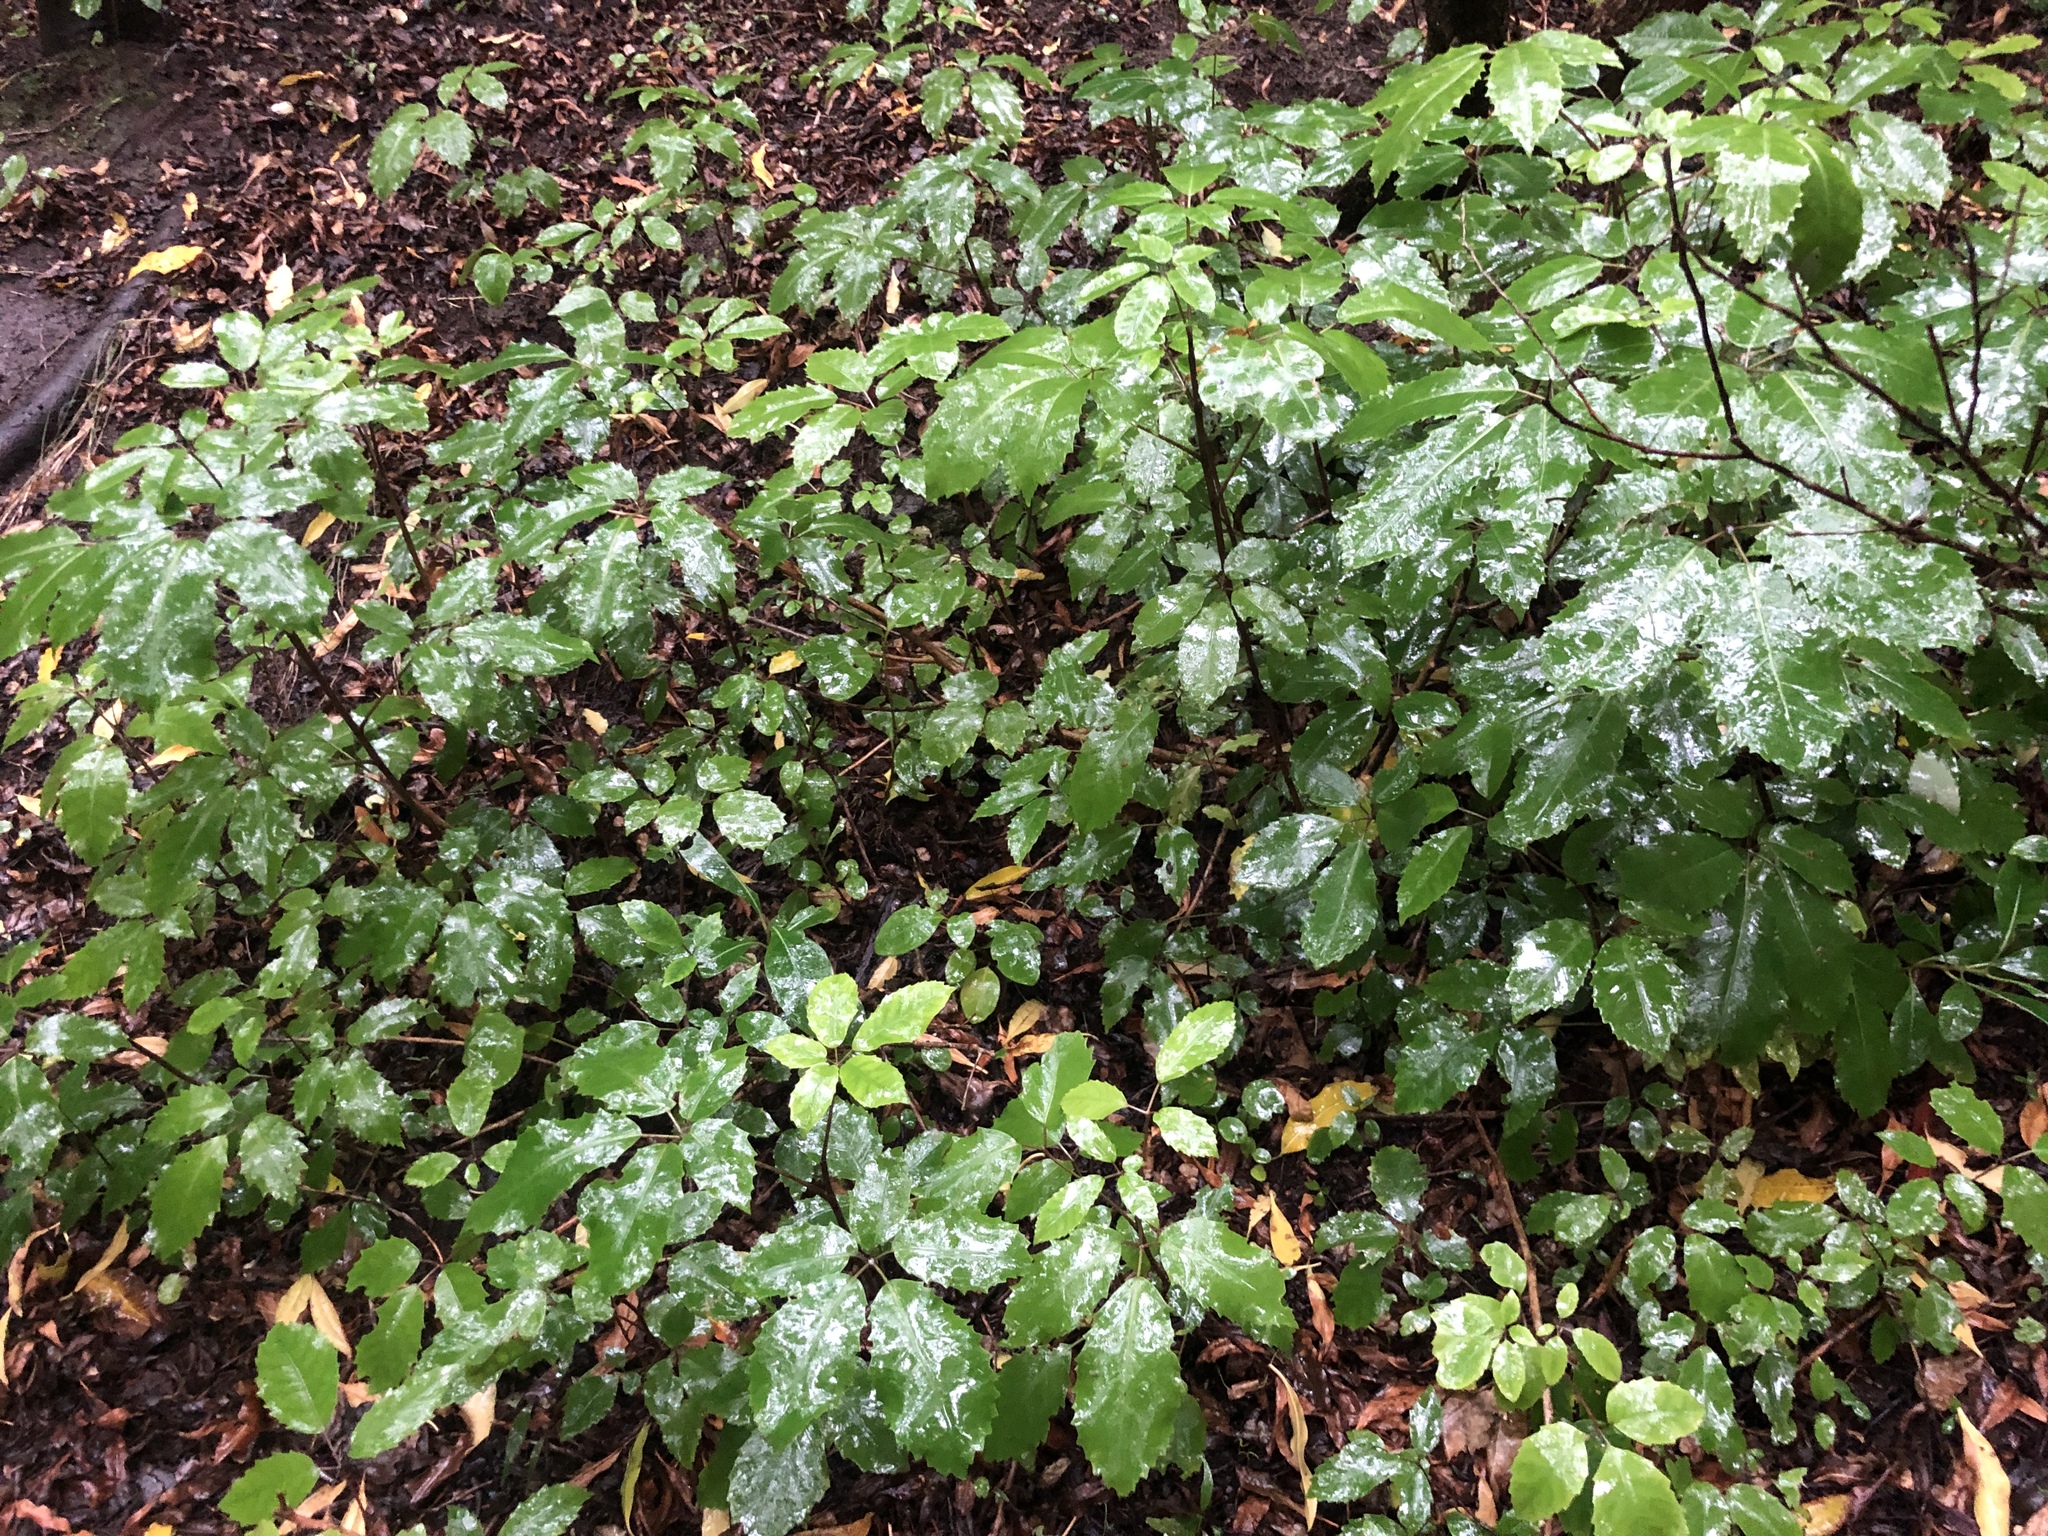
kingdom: Plantae
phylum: Tracheophyta
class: Magnoliopsida
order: Apiales
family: Araliaceae
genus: Neopanax
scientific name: Neopanax arboreus
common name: Five-fingers
